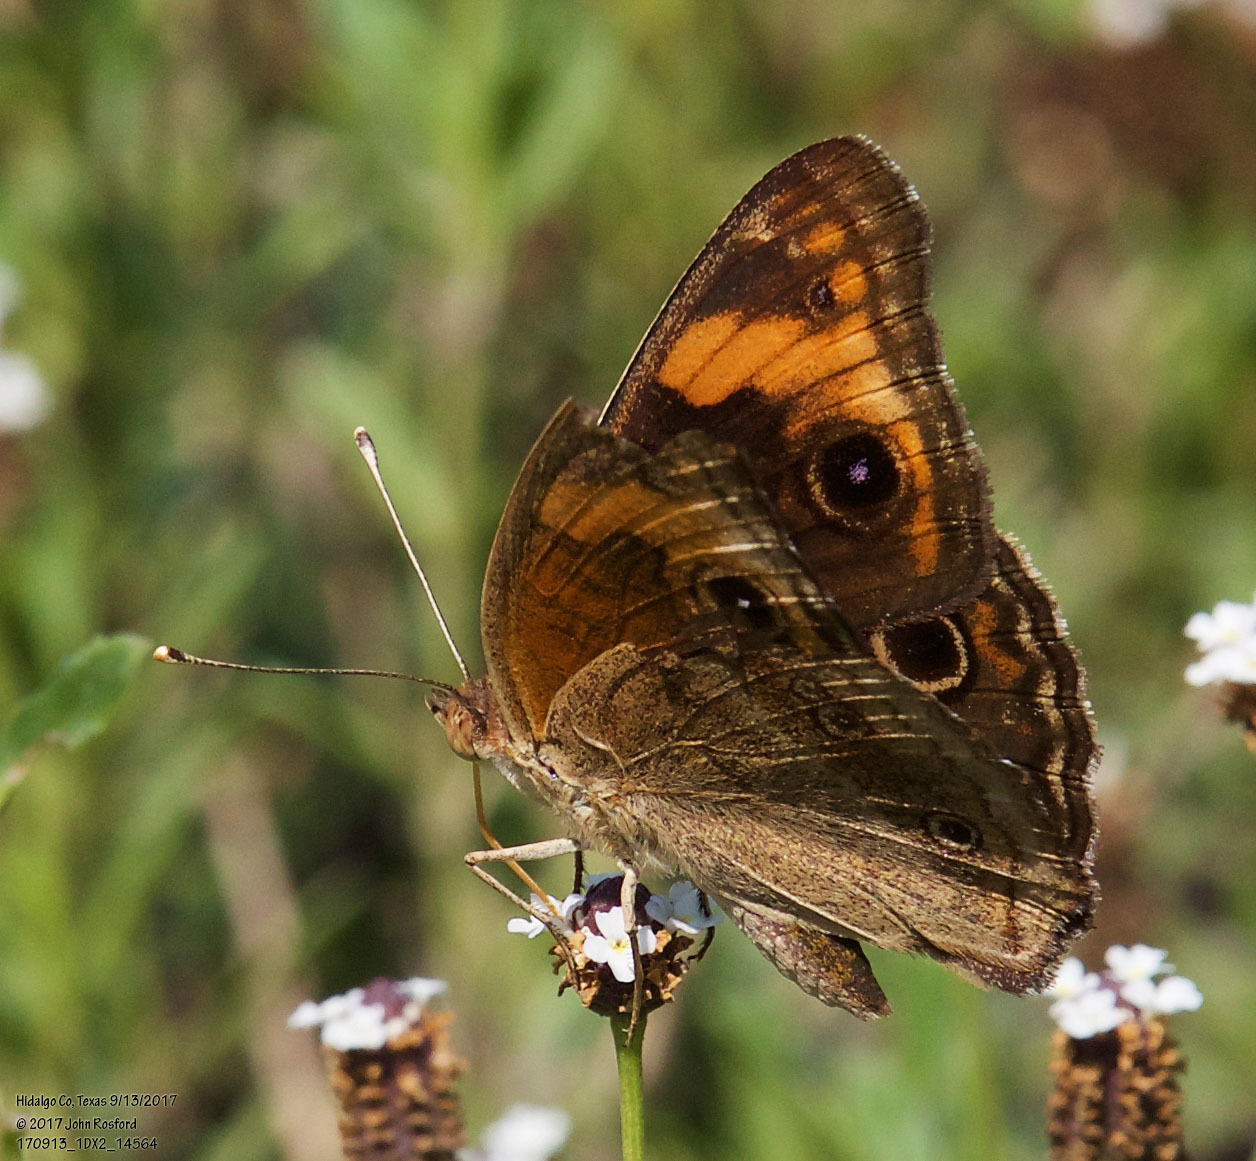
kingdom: Animalia
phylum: Arthropoda
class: Insecta
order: Lepidoptera
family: Nymphalidae
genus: Junonia
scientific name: Junonia stemosa
